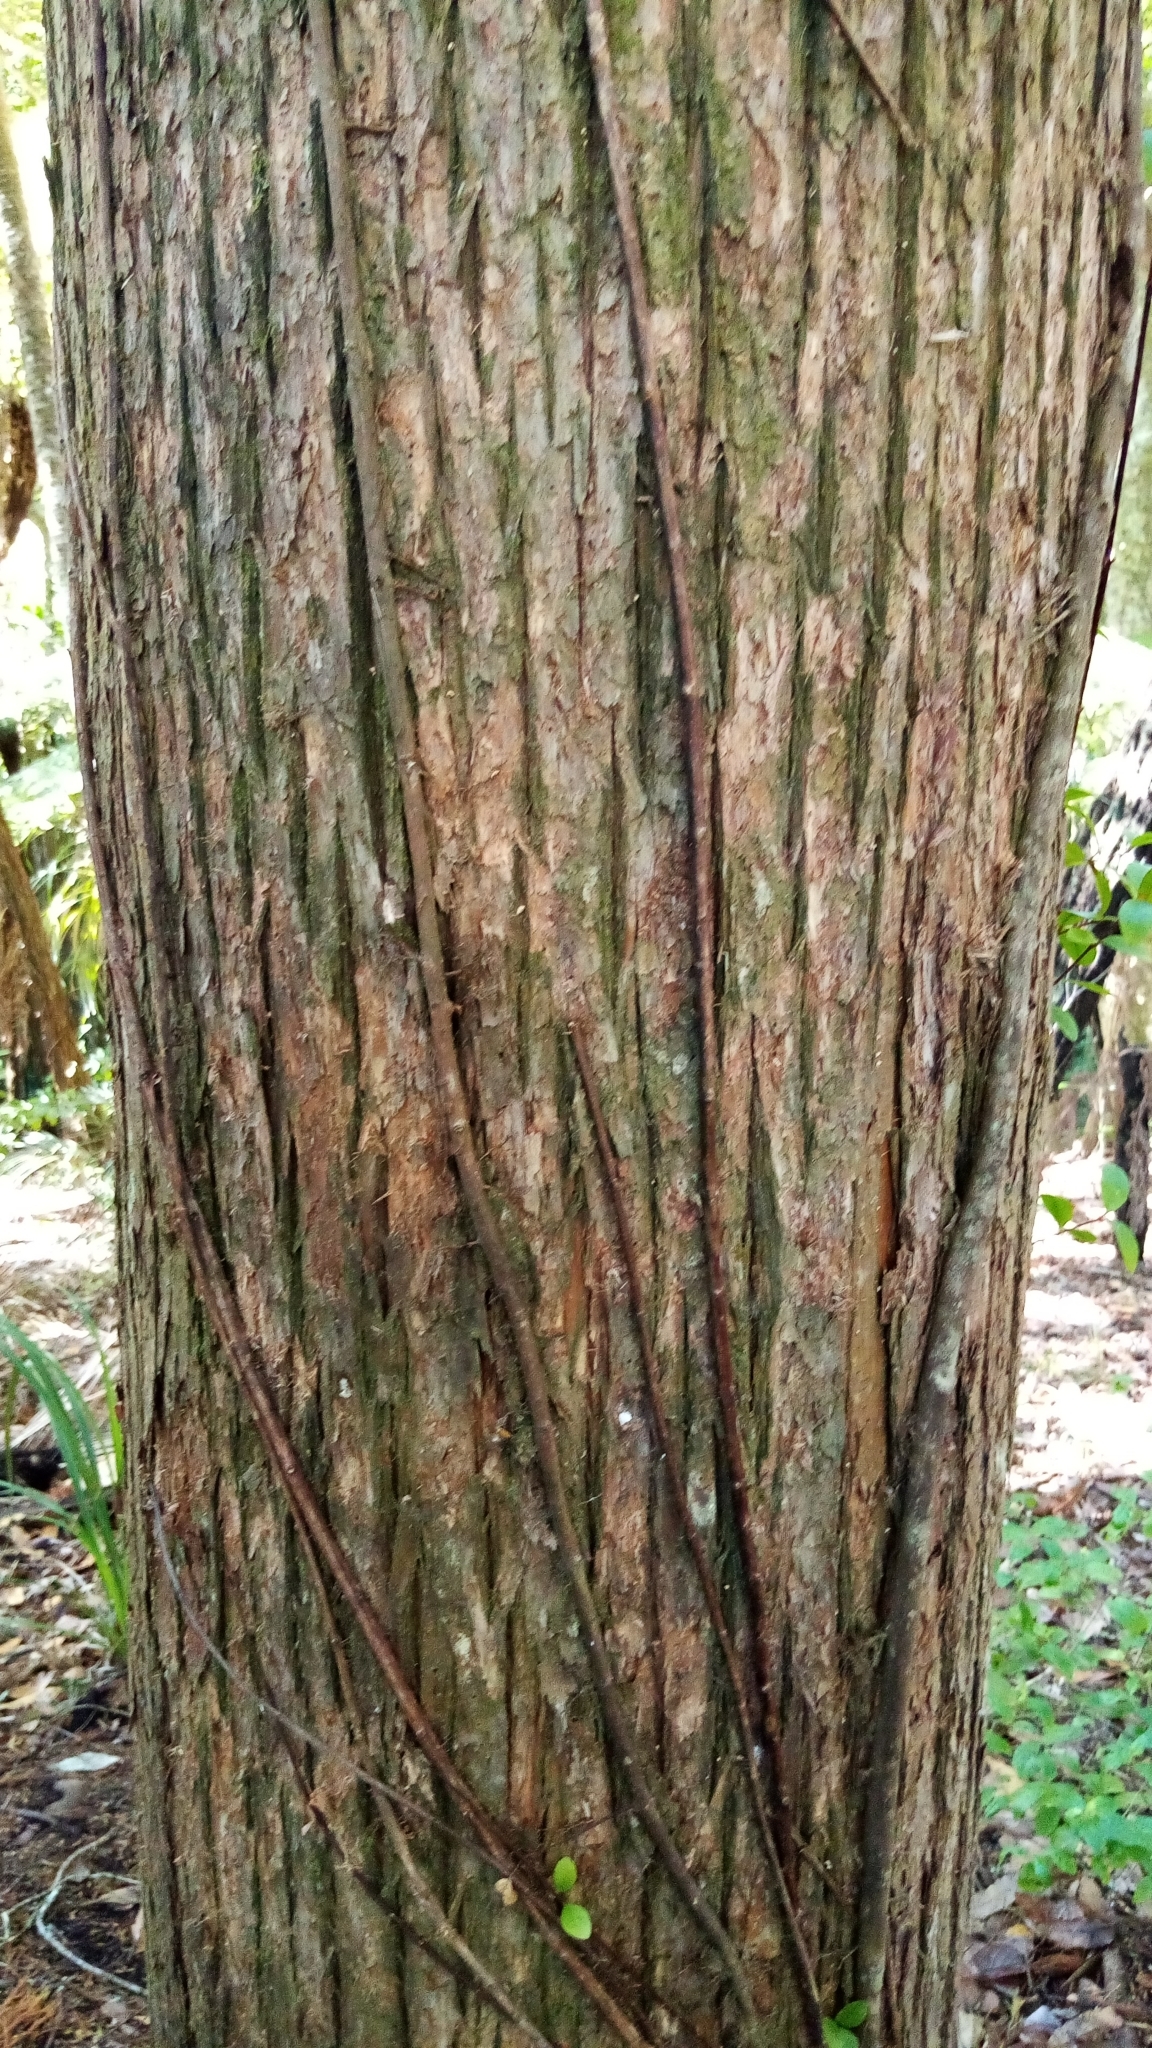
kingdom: Plantae
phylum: Tracheophyta
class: Pinopsida
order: Pinales
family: Podocarpaceae
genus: Podocarpus
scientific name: Podocarpus totara
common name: Totara
